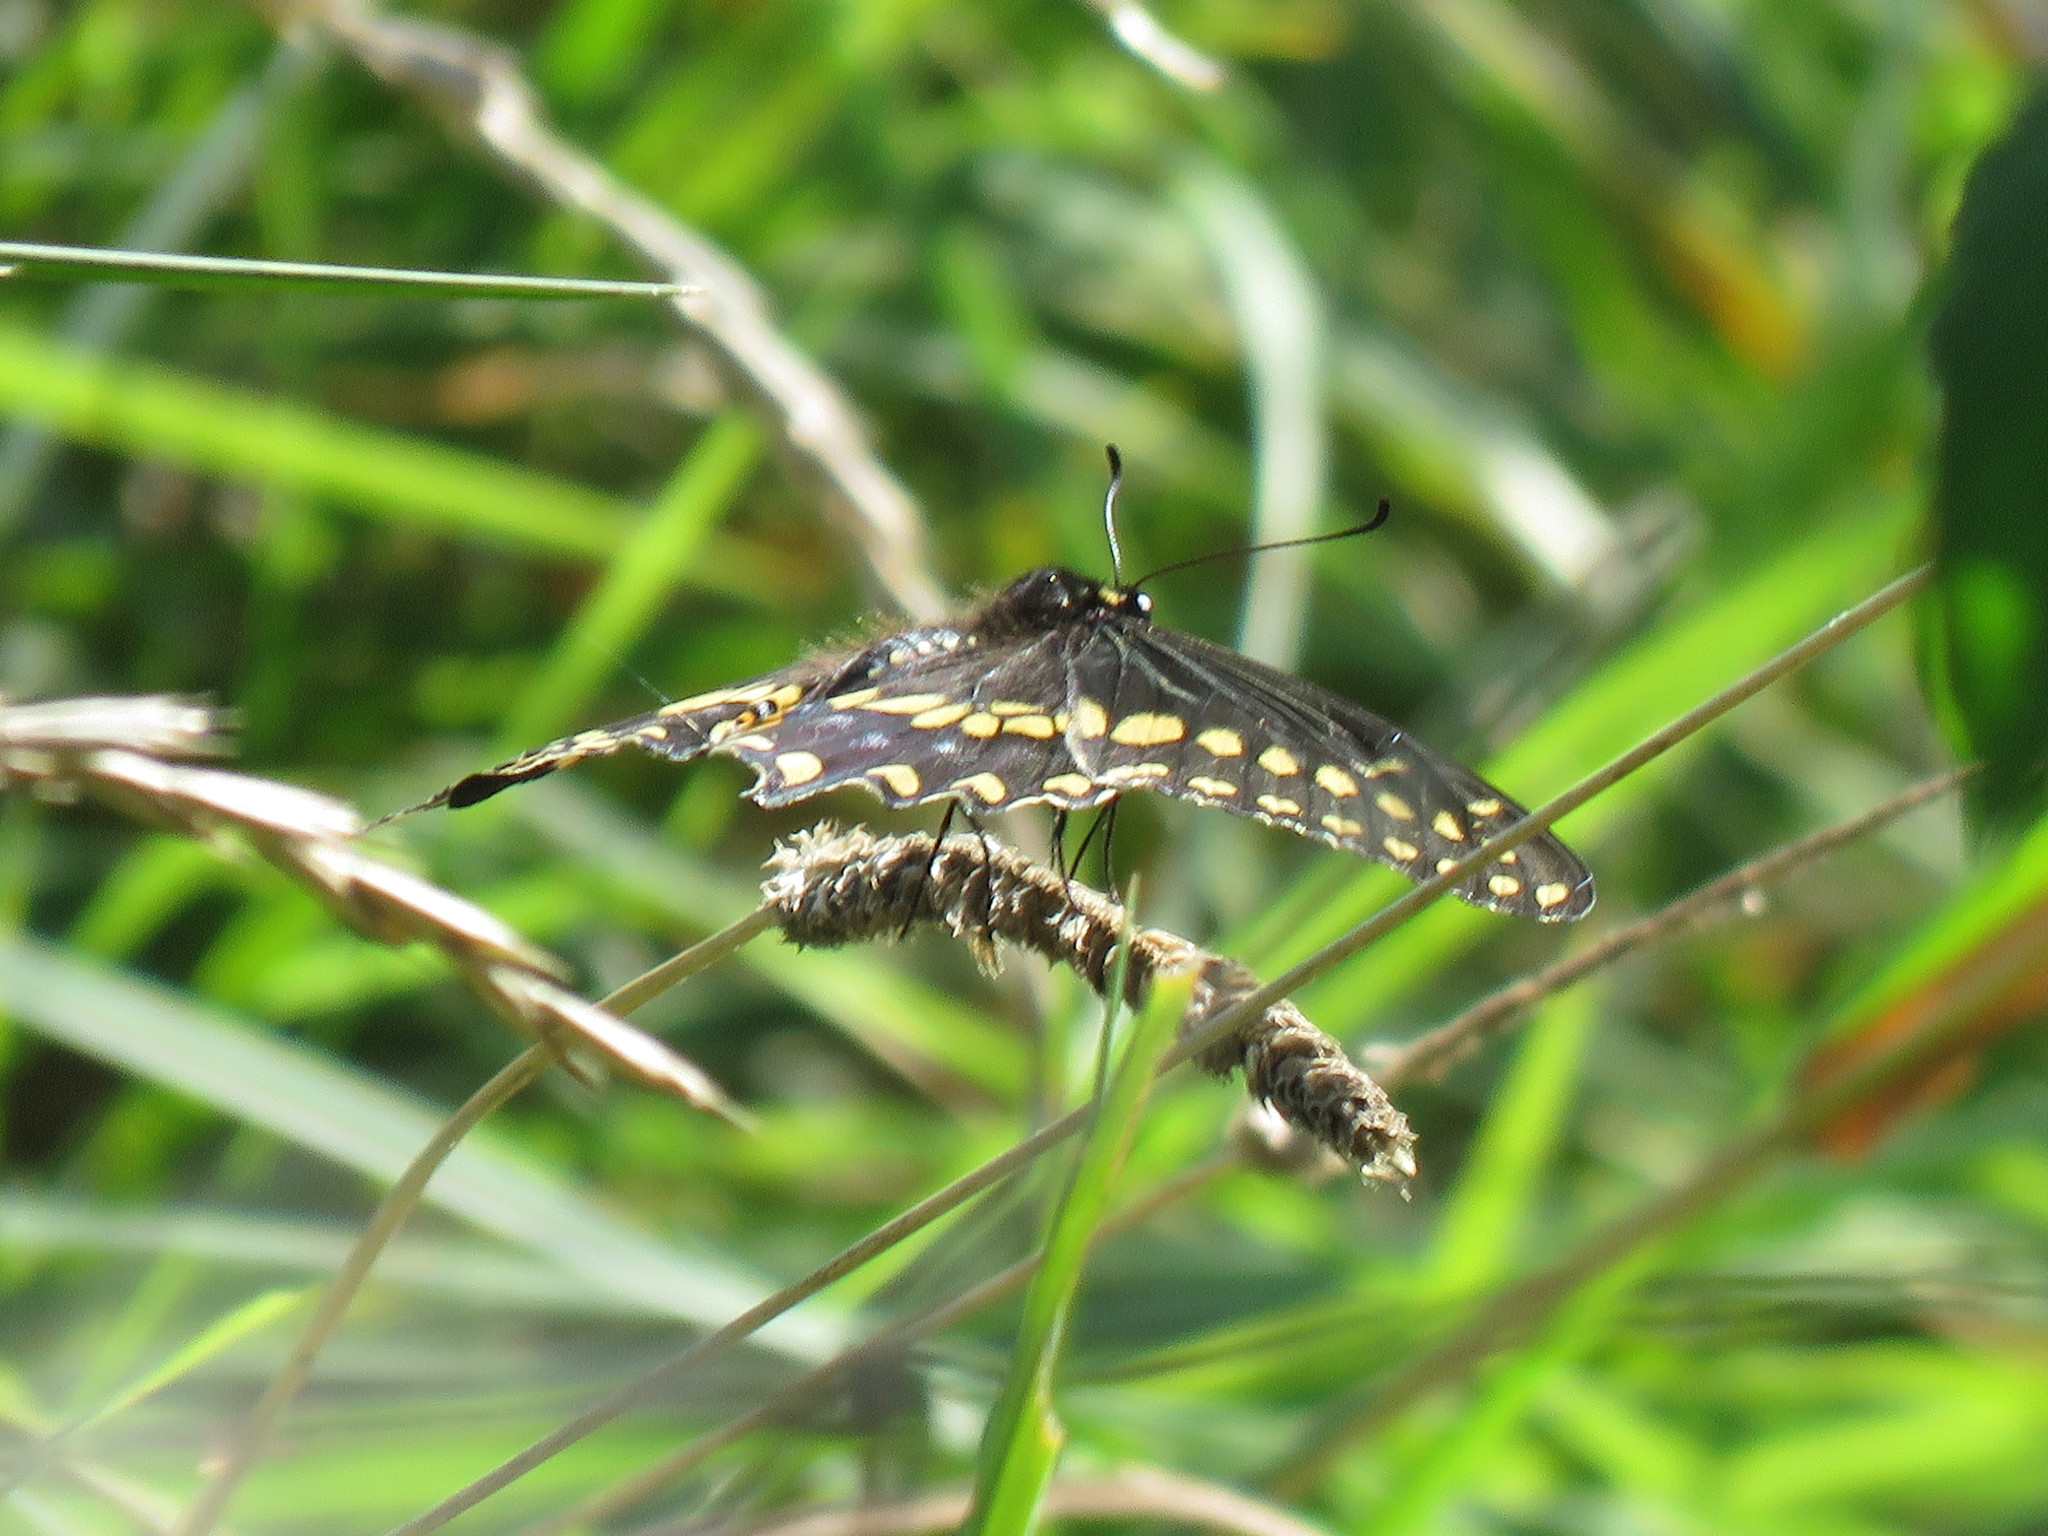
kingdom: Animalia
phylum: Arthropoda
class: Insecta
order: Lepidoptera
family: Papilionidae
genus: Papilio
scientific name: Papilio polyxenes
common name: Black swallowtail
